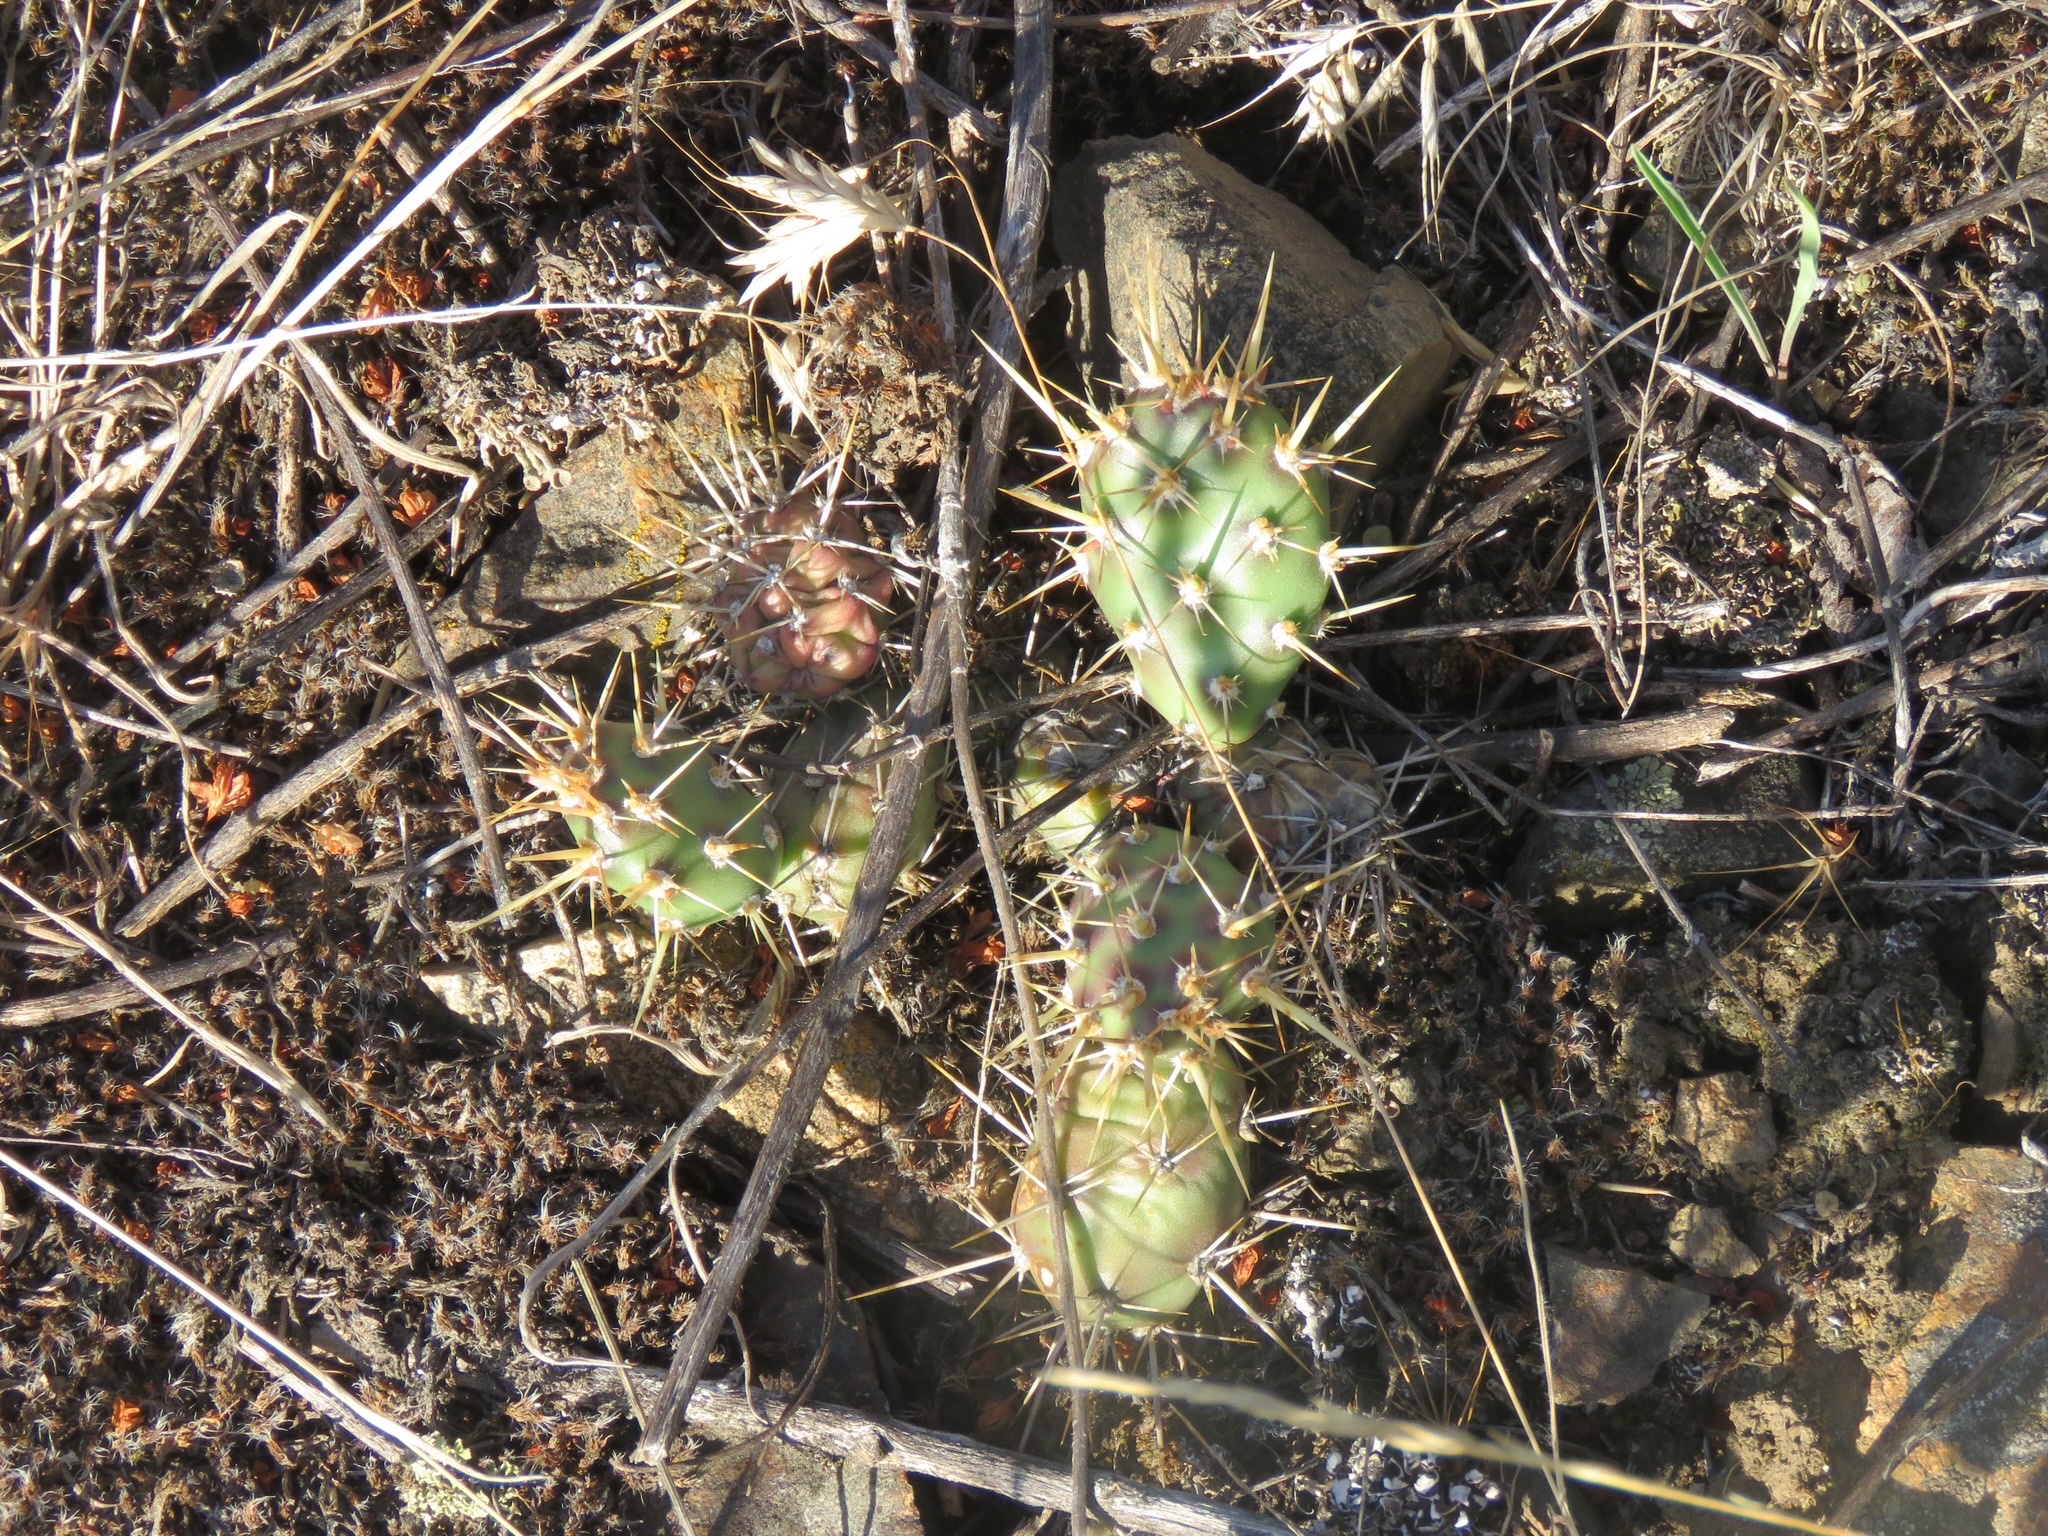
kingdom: Plantae
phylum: Tracheophyta
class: Magnoliopsida
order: Caryophyllales
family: Cactaceae
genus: Opuntia
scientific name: Opuntia fragilis
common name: Brittle cactus
